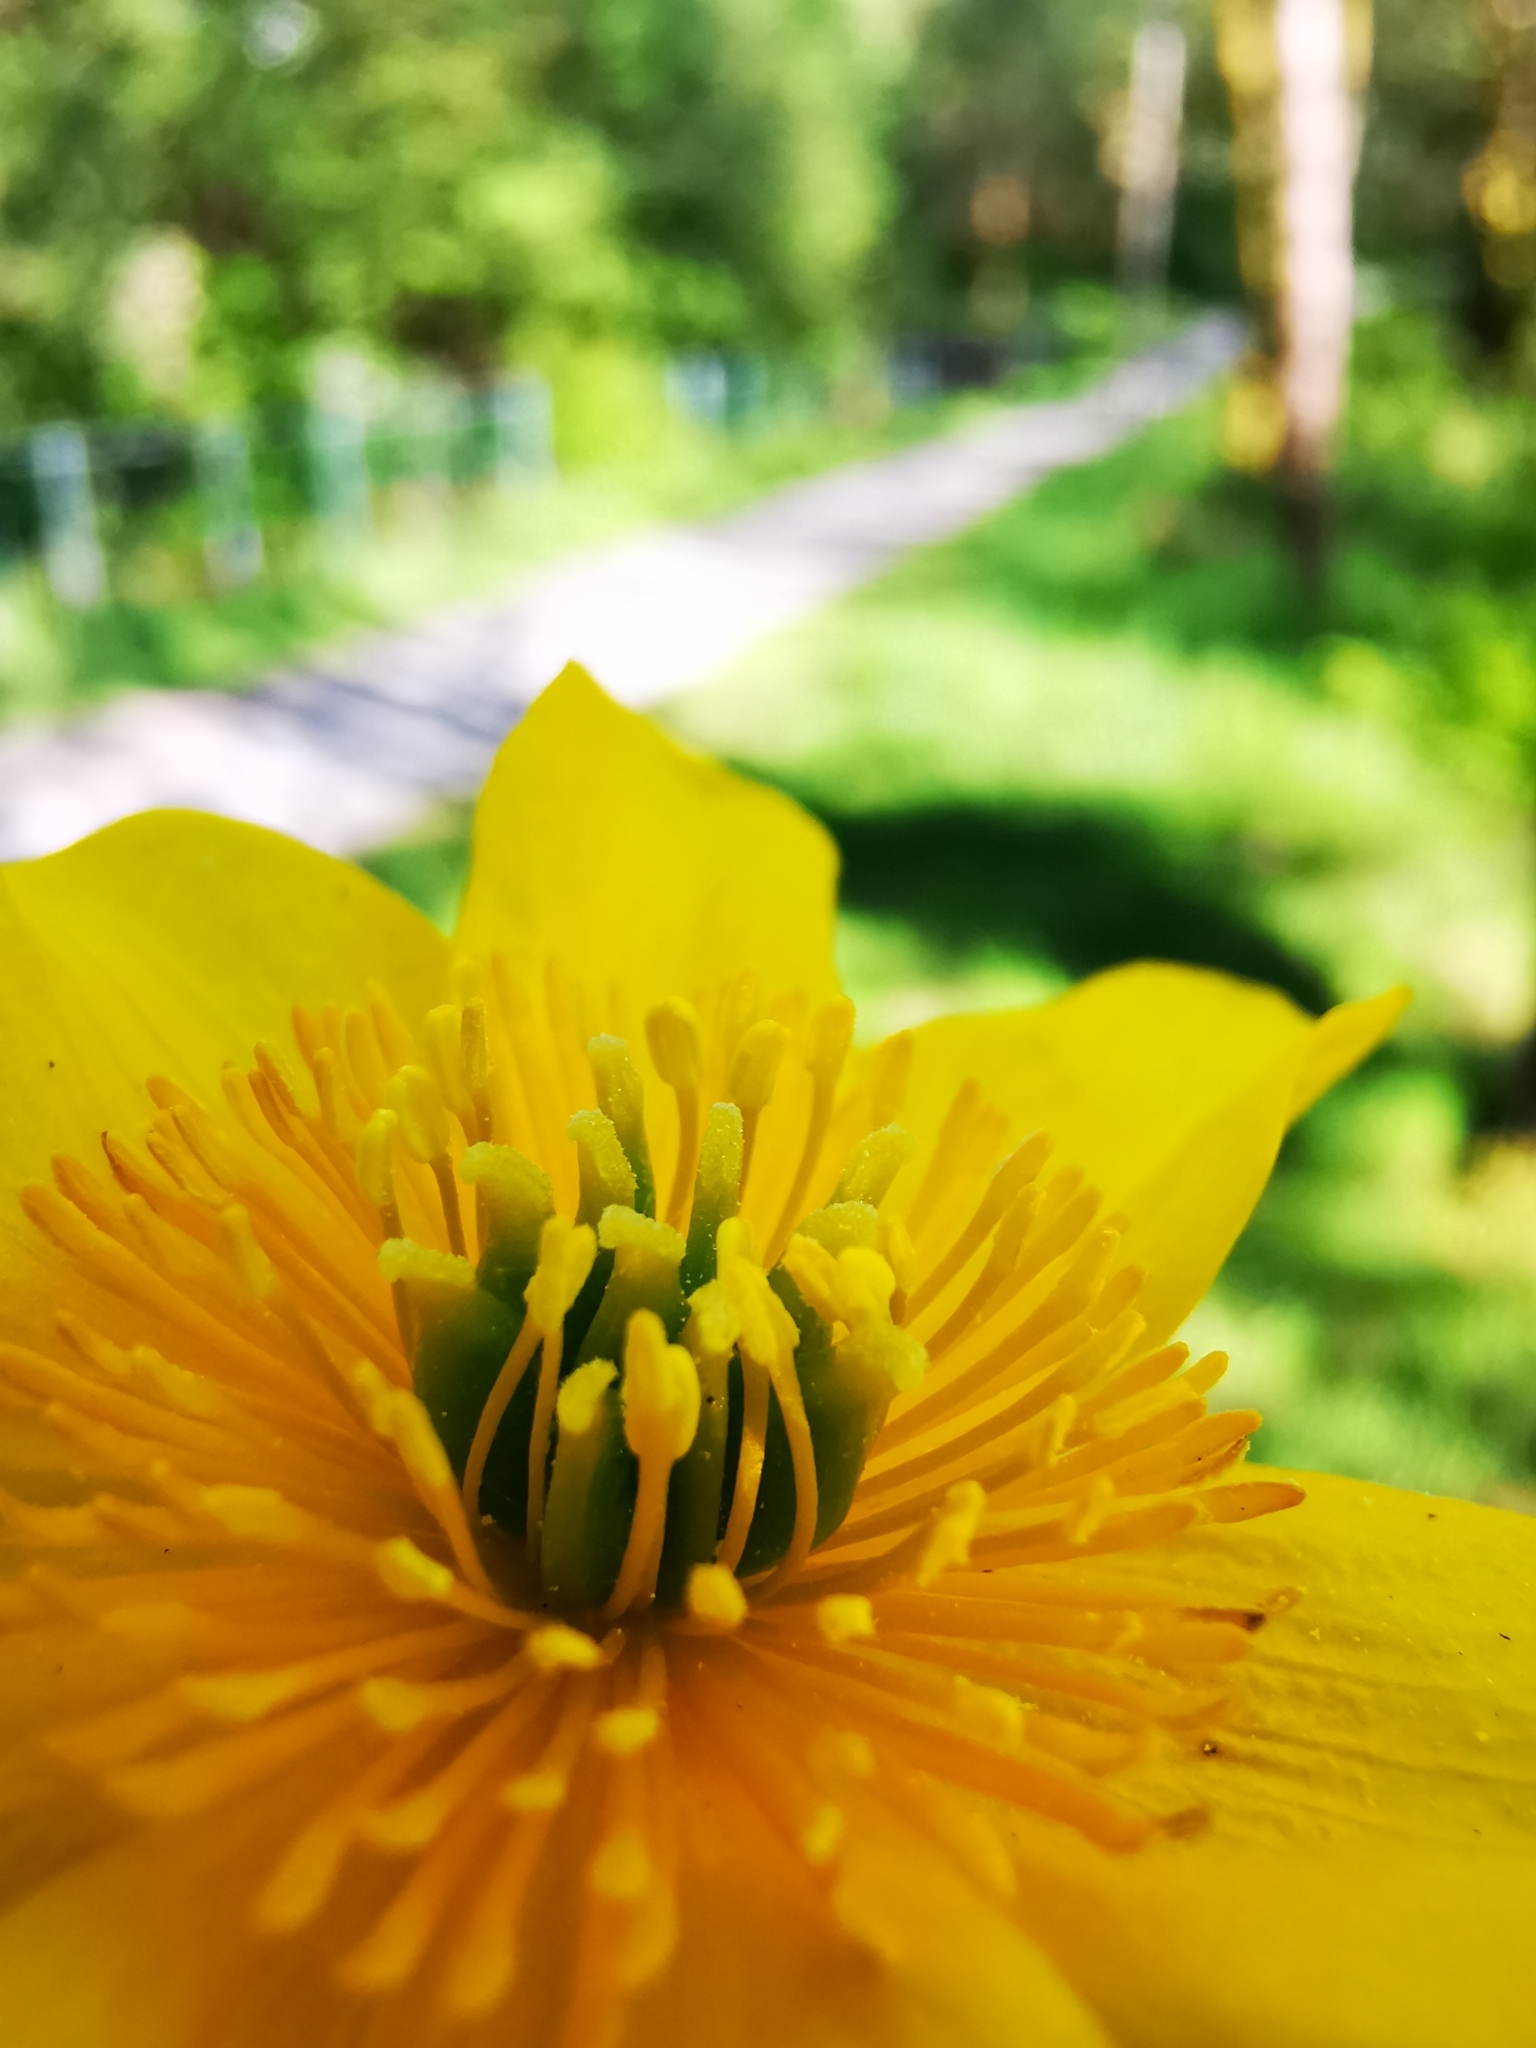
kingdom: Plantae
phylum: Tracheophyta
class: Magnoliopsida
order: Ranunculales
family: Ranunculaceae
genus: Caltha
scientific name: Caltha palustris
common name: Marsh marigold
